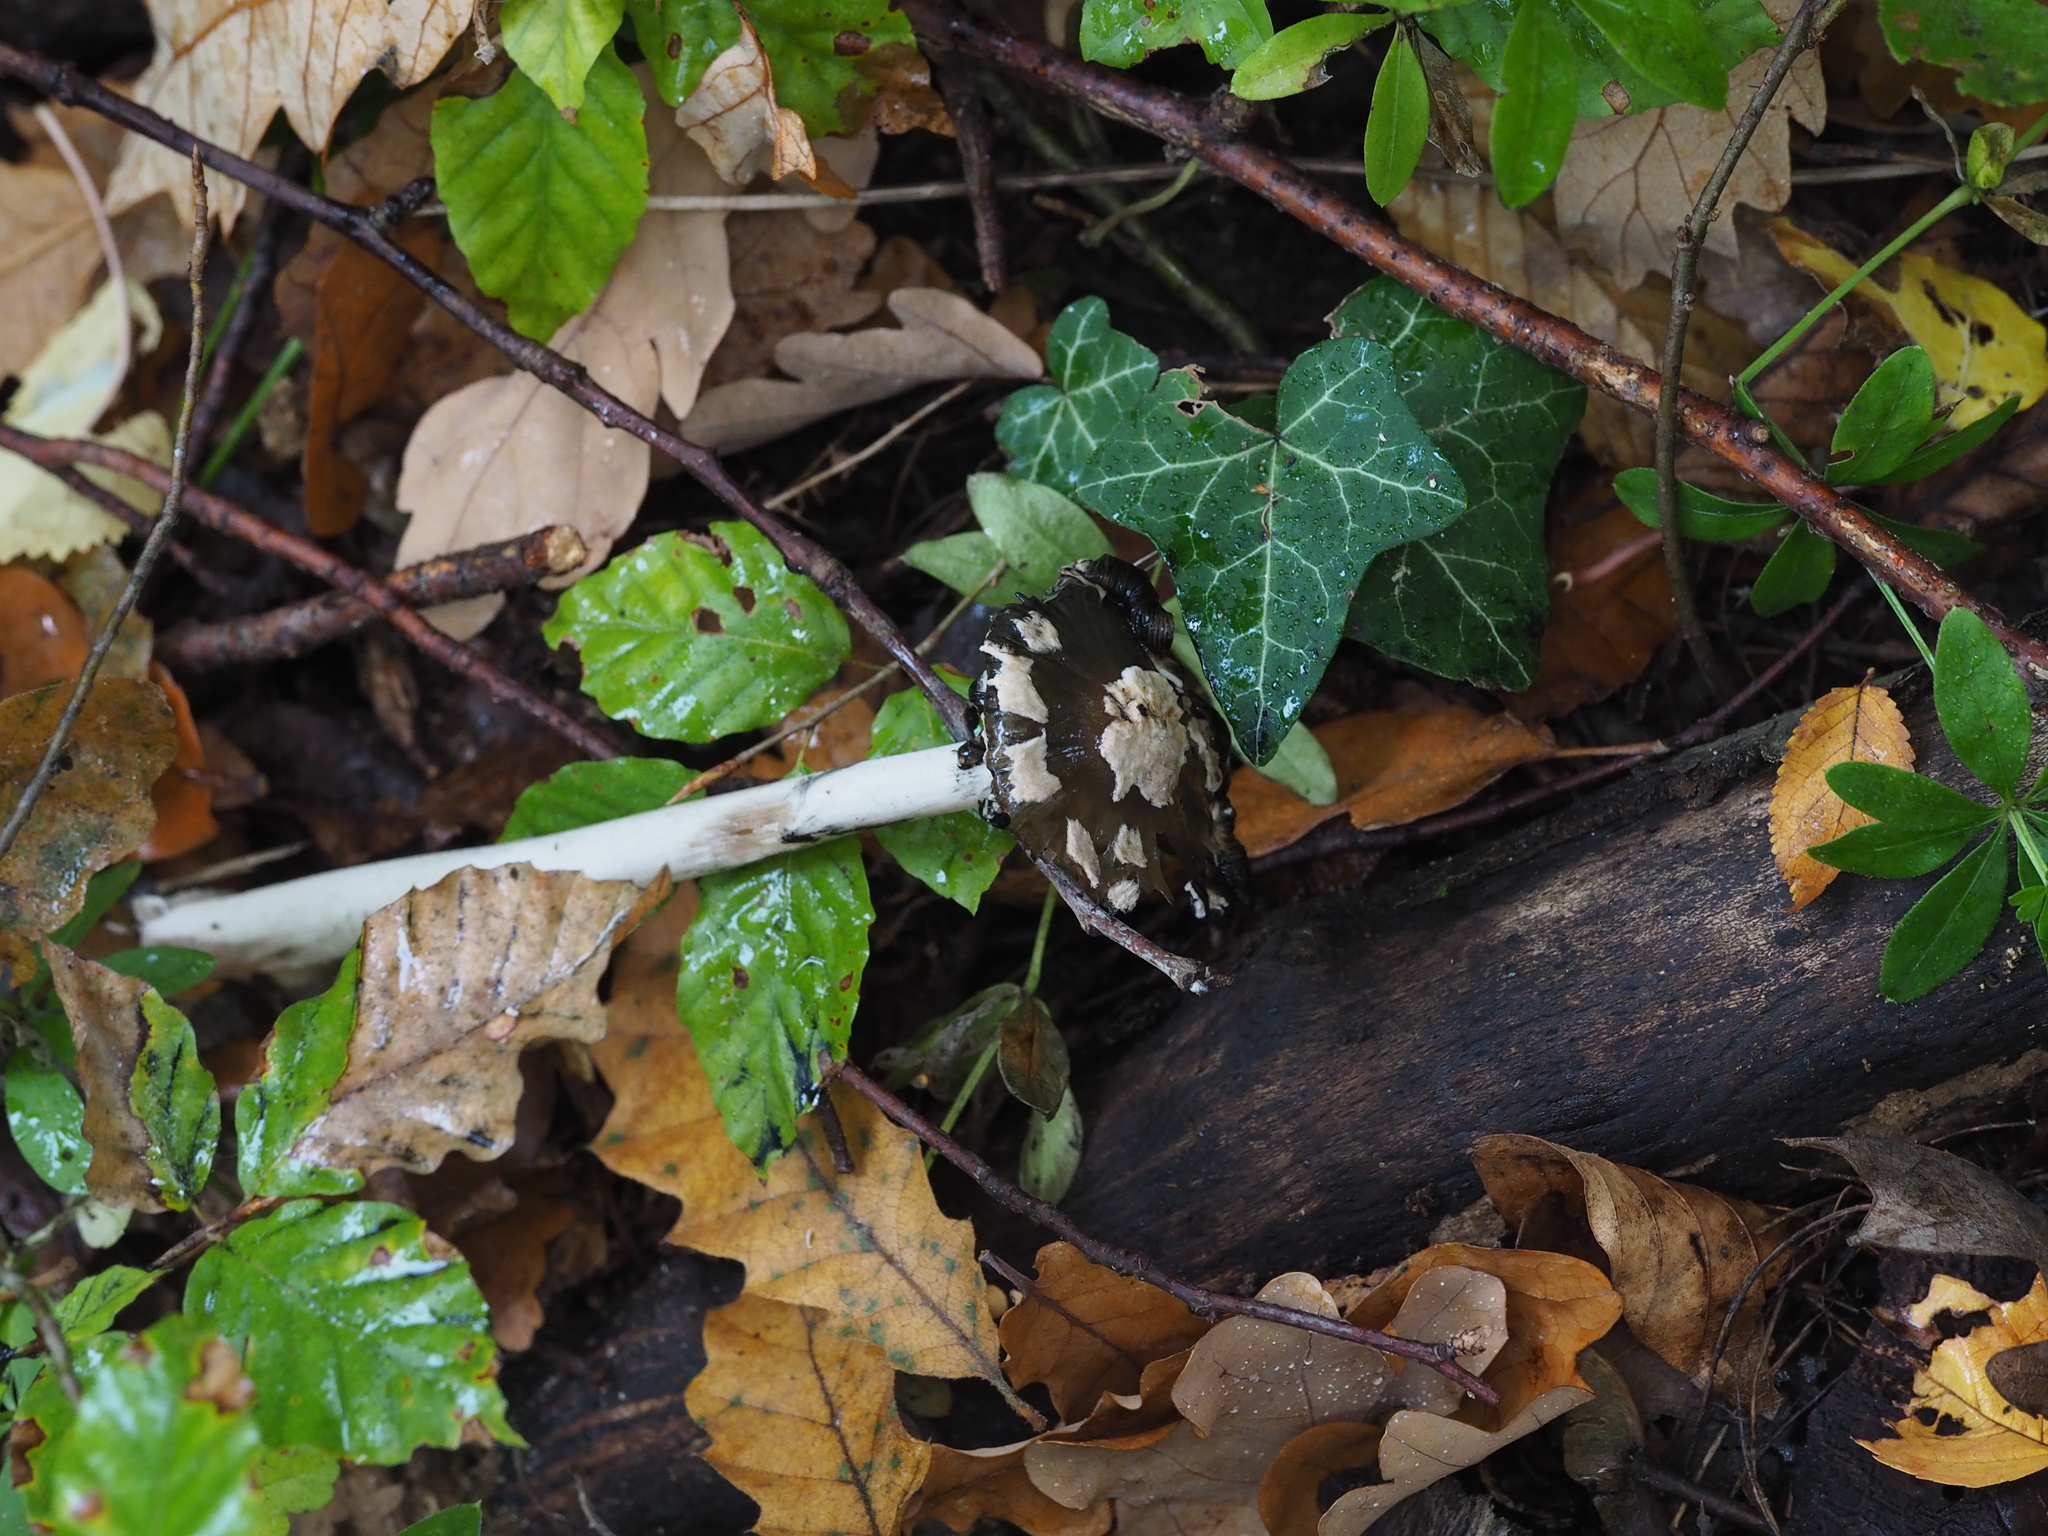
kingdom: Fungi
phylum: Basidiomycota
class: Agaricomycetes
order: Agaricales
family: Psathyrellaceae
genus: Coprinopsis
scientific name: Coprinopsis picacea
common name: Magpie inkcap
